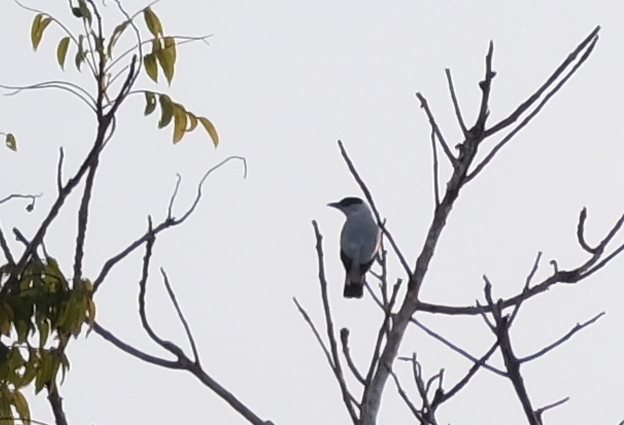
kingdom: Animalia
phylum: Chordata
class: Aves
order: Passeriformes
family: Cotingidae
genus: Tityra
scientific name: Tityra inquisitor
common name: Black-crowned tityra
